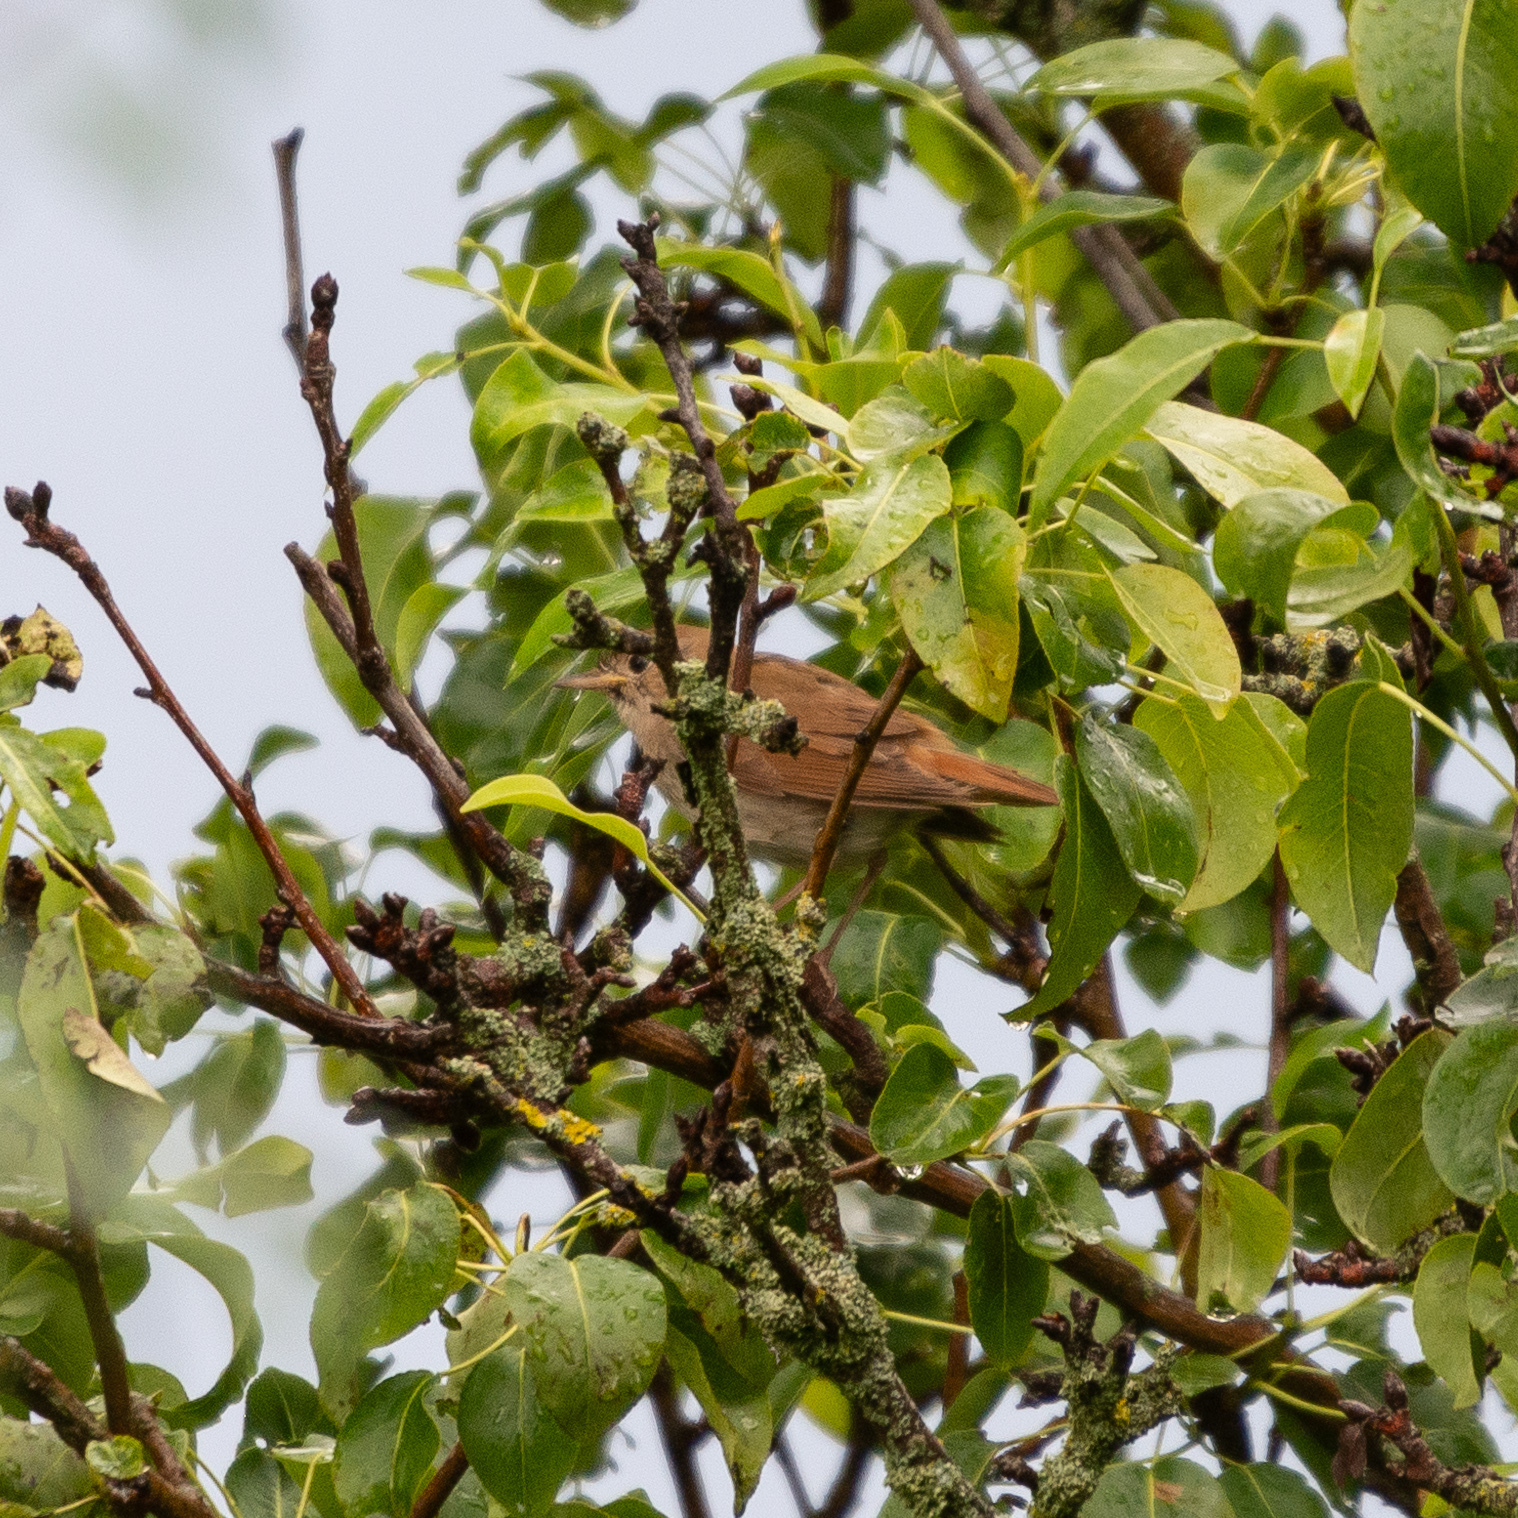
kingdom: Animalia
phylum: Chordata
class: Aves
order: Passeriformes
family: Muscicapidae
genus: Luscinia
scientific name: Luscinia megarhynchos
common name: Common nightingale
